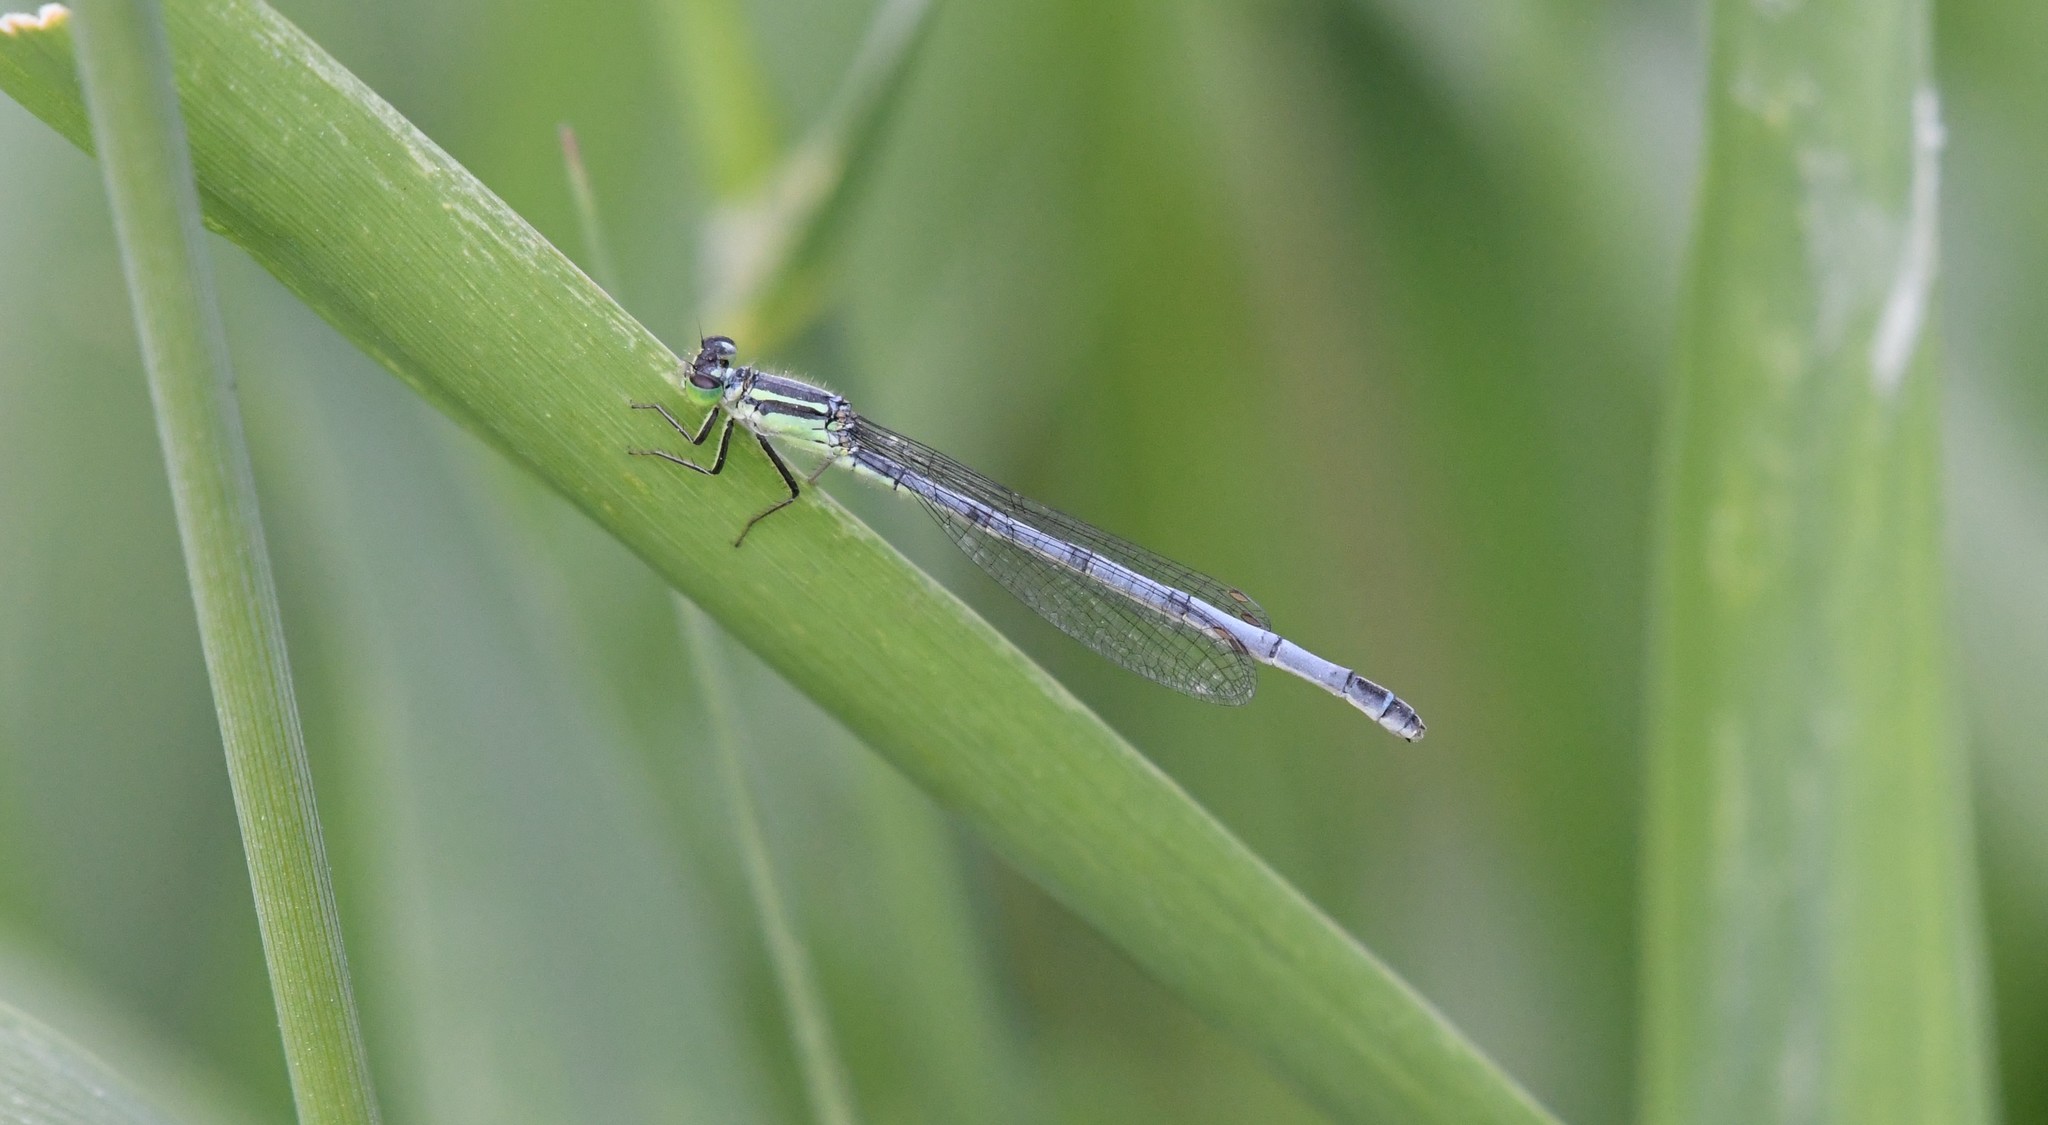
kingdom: Animalia
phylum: Arthropoda
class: Insecta
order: Odonata
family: Coenagrionidae
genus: Ischnura
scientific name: Ischnura verticalis
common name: Eastern forktail
